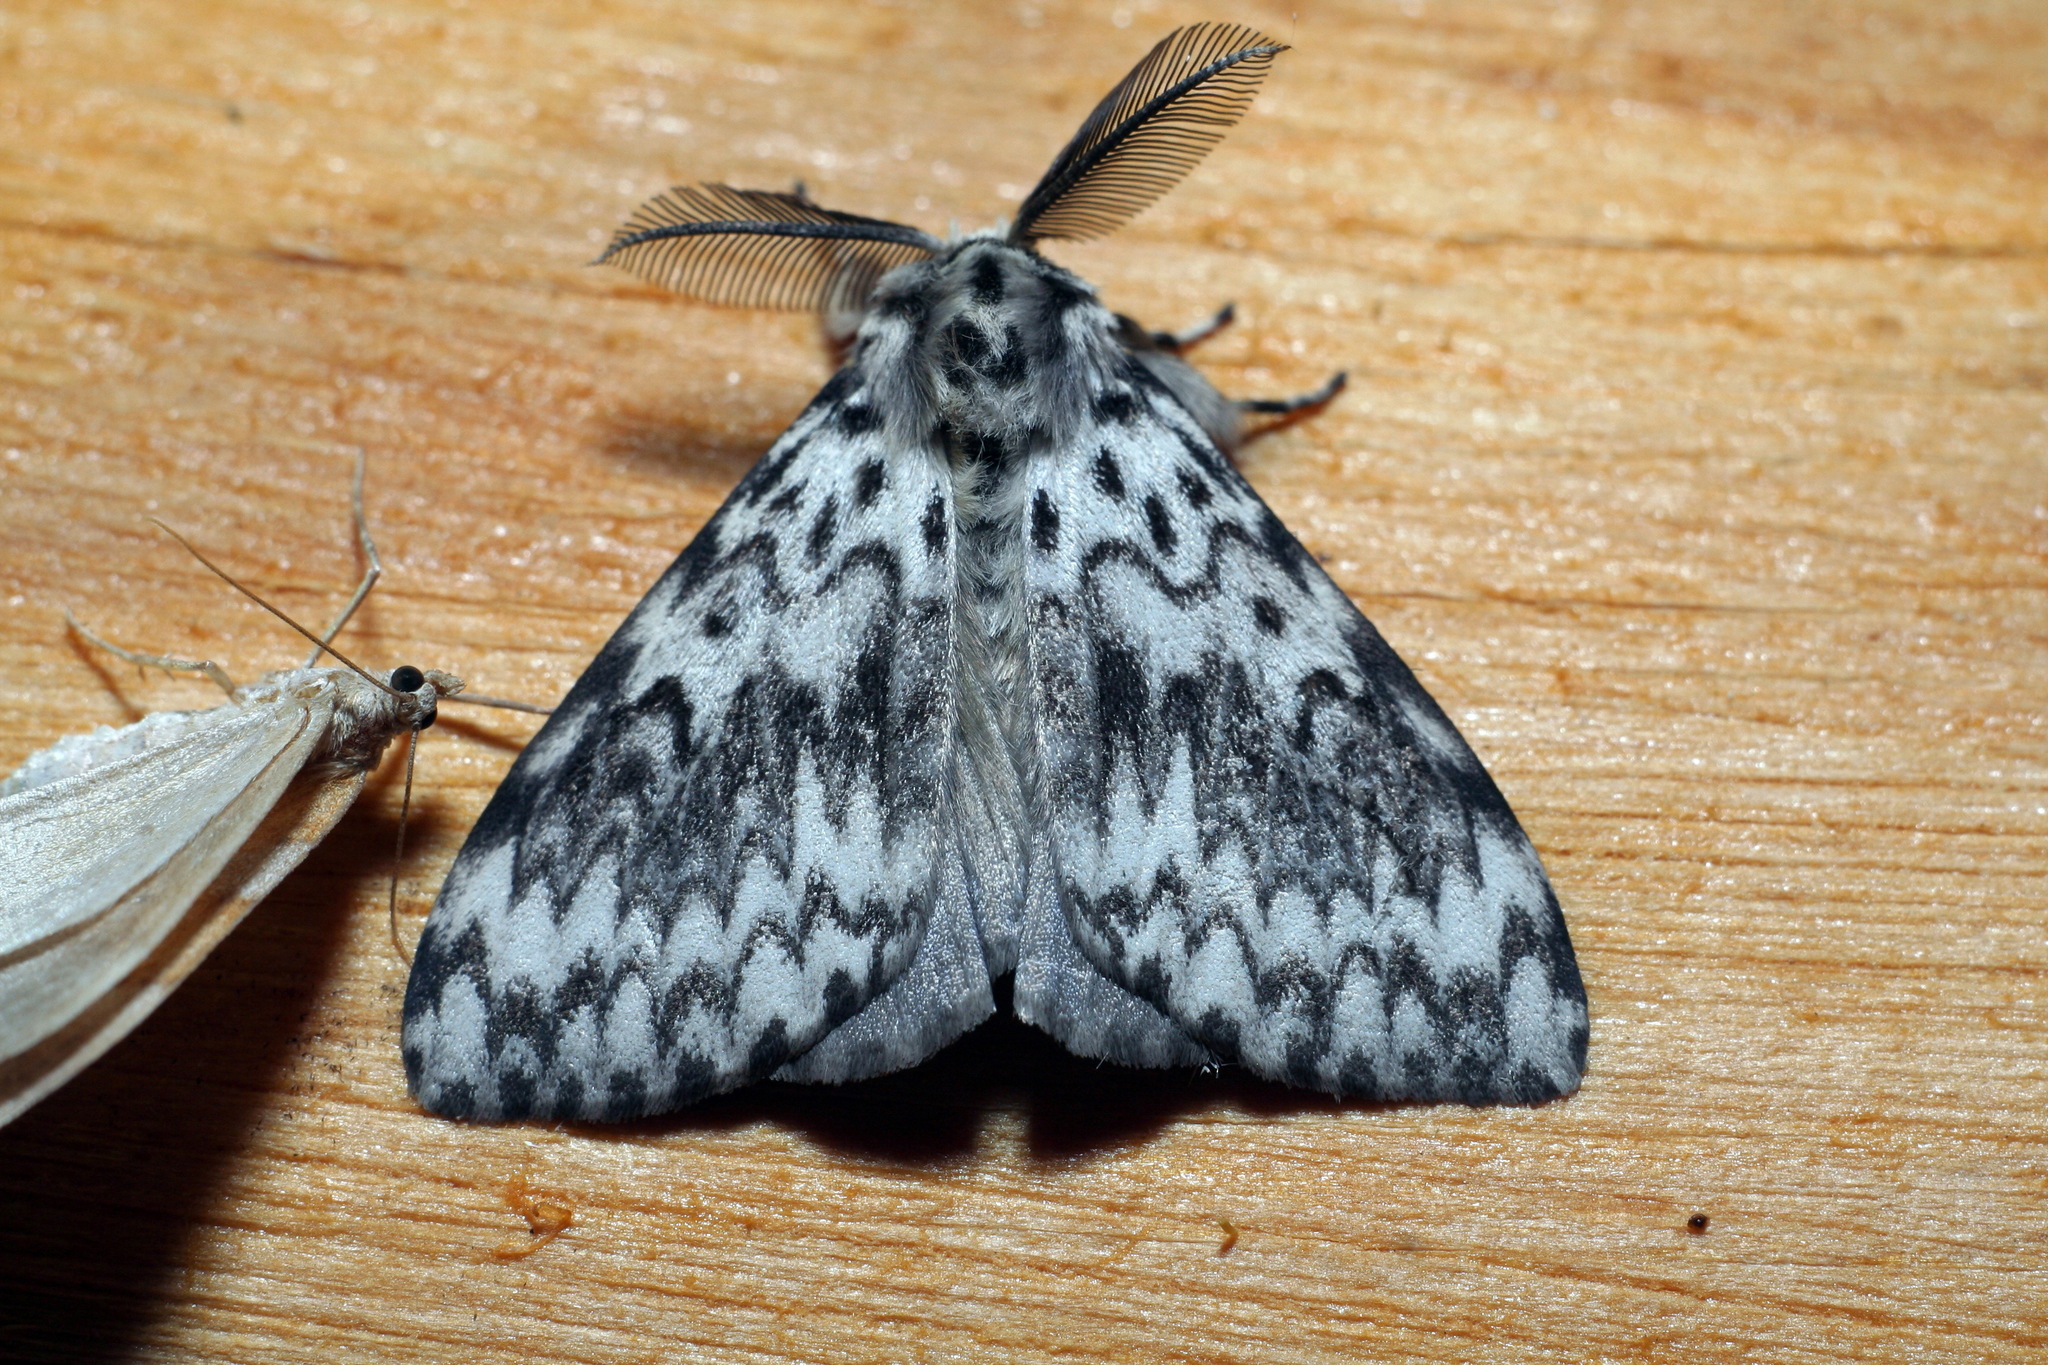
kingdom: Animalia
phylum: Arthropoda
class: Insecta
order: Lepidoptera
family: Erebidae
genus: Lymantria
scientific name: Lymantria monacha
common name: Black arches
